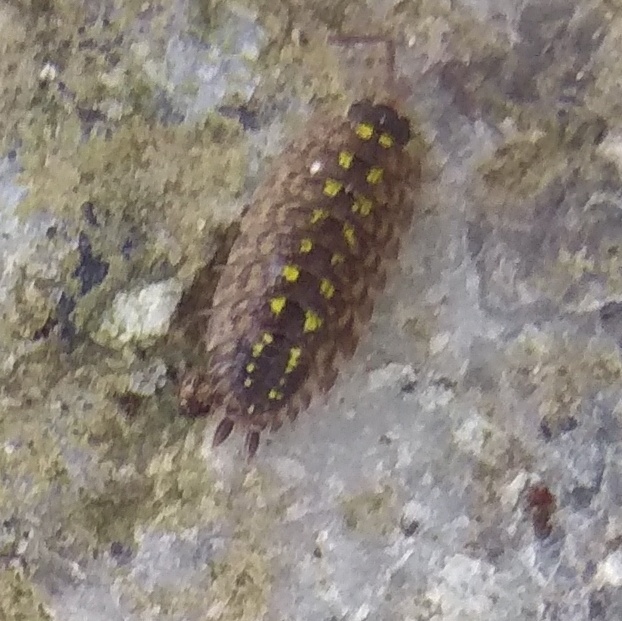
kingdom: Animalia
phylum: Arthropoda
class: Malacostraca
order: Isopoda
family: Porcellionidae
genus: Porcellio
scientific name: Porcellio spinicornis
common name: Painted woodlouse
